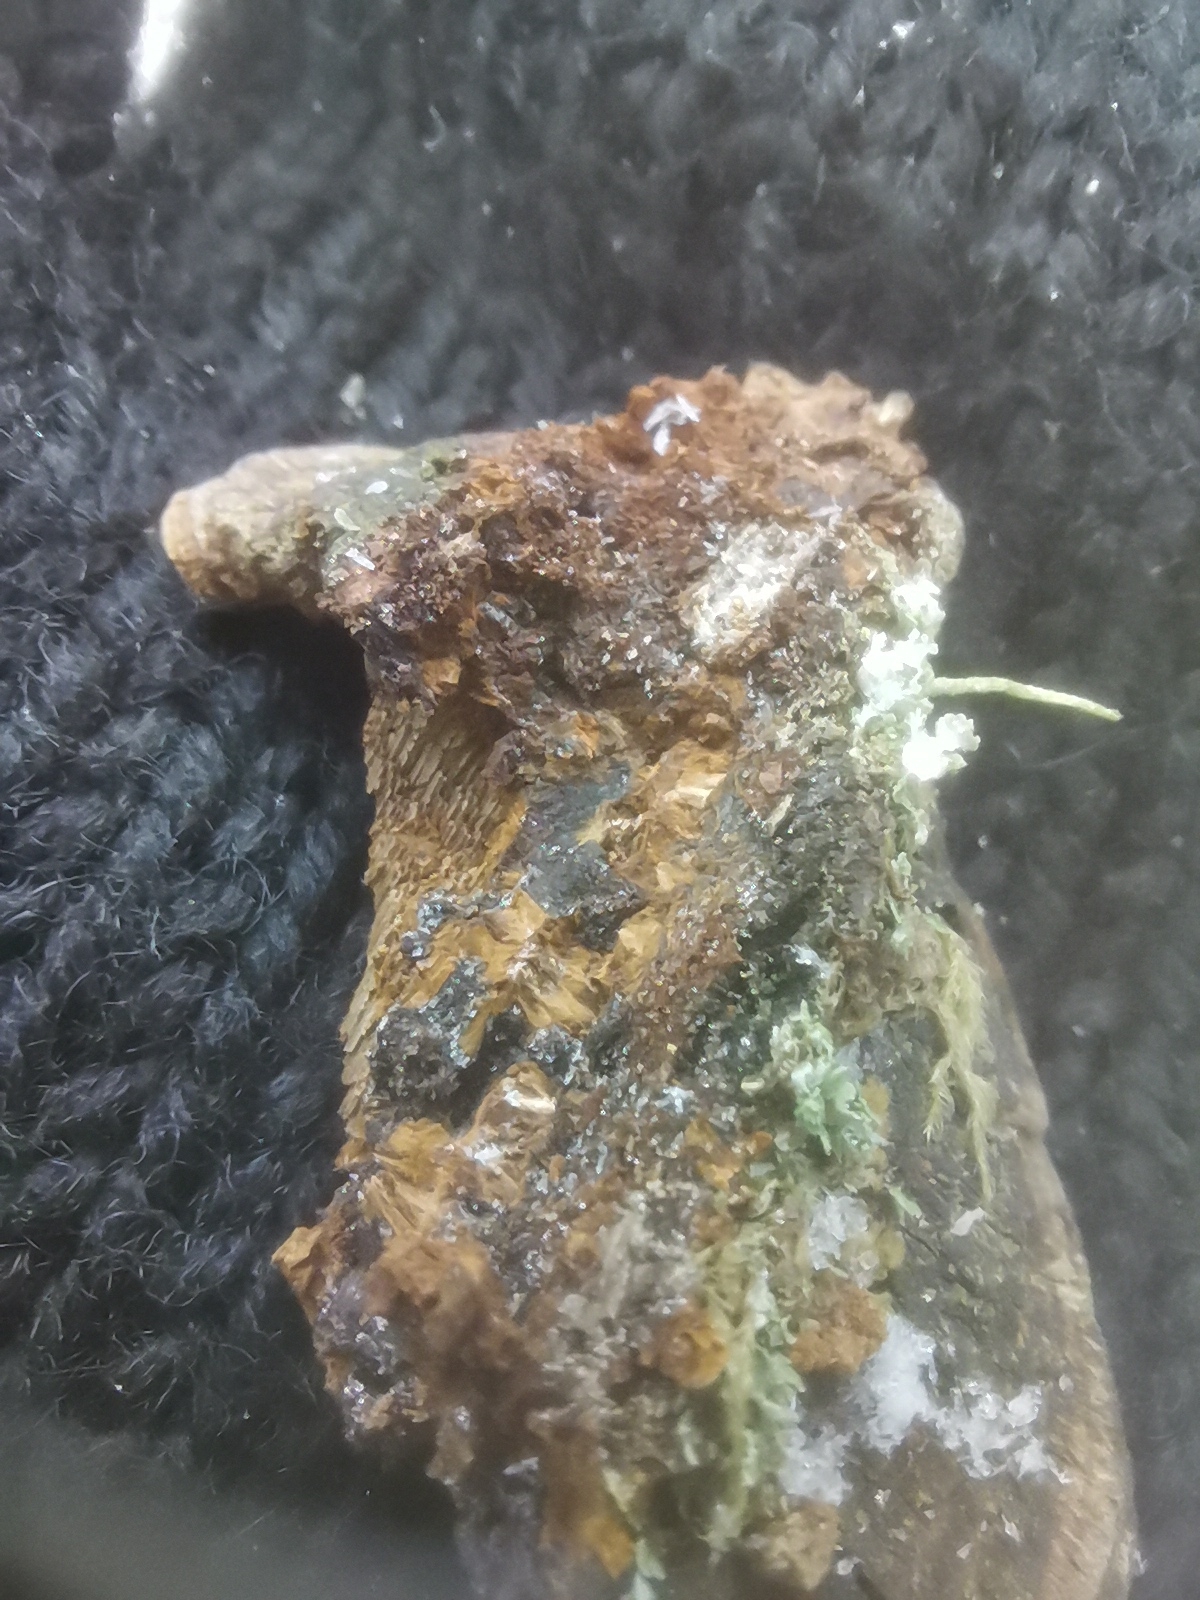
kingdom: Fungi
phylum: Basidiomycota
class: Agaricomycetes
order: Hymenochaetales
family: Hymenochaetaceae
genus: Phellinopsis
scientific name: Phellinopsis conchata
